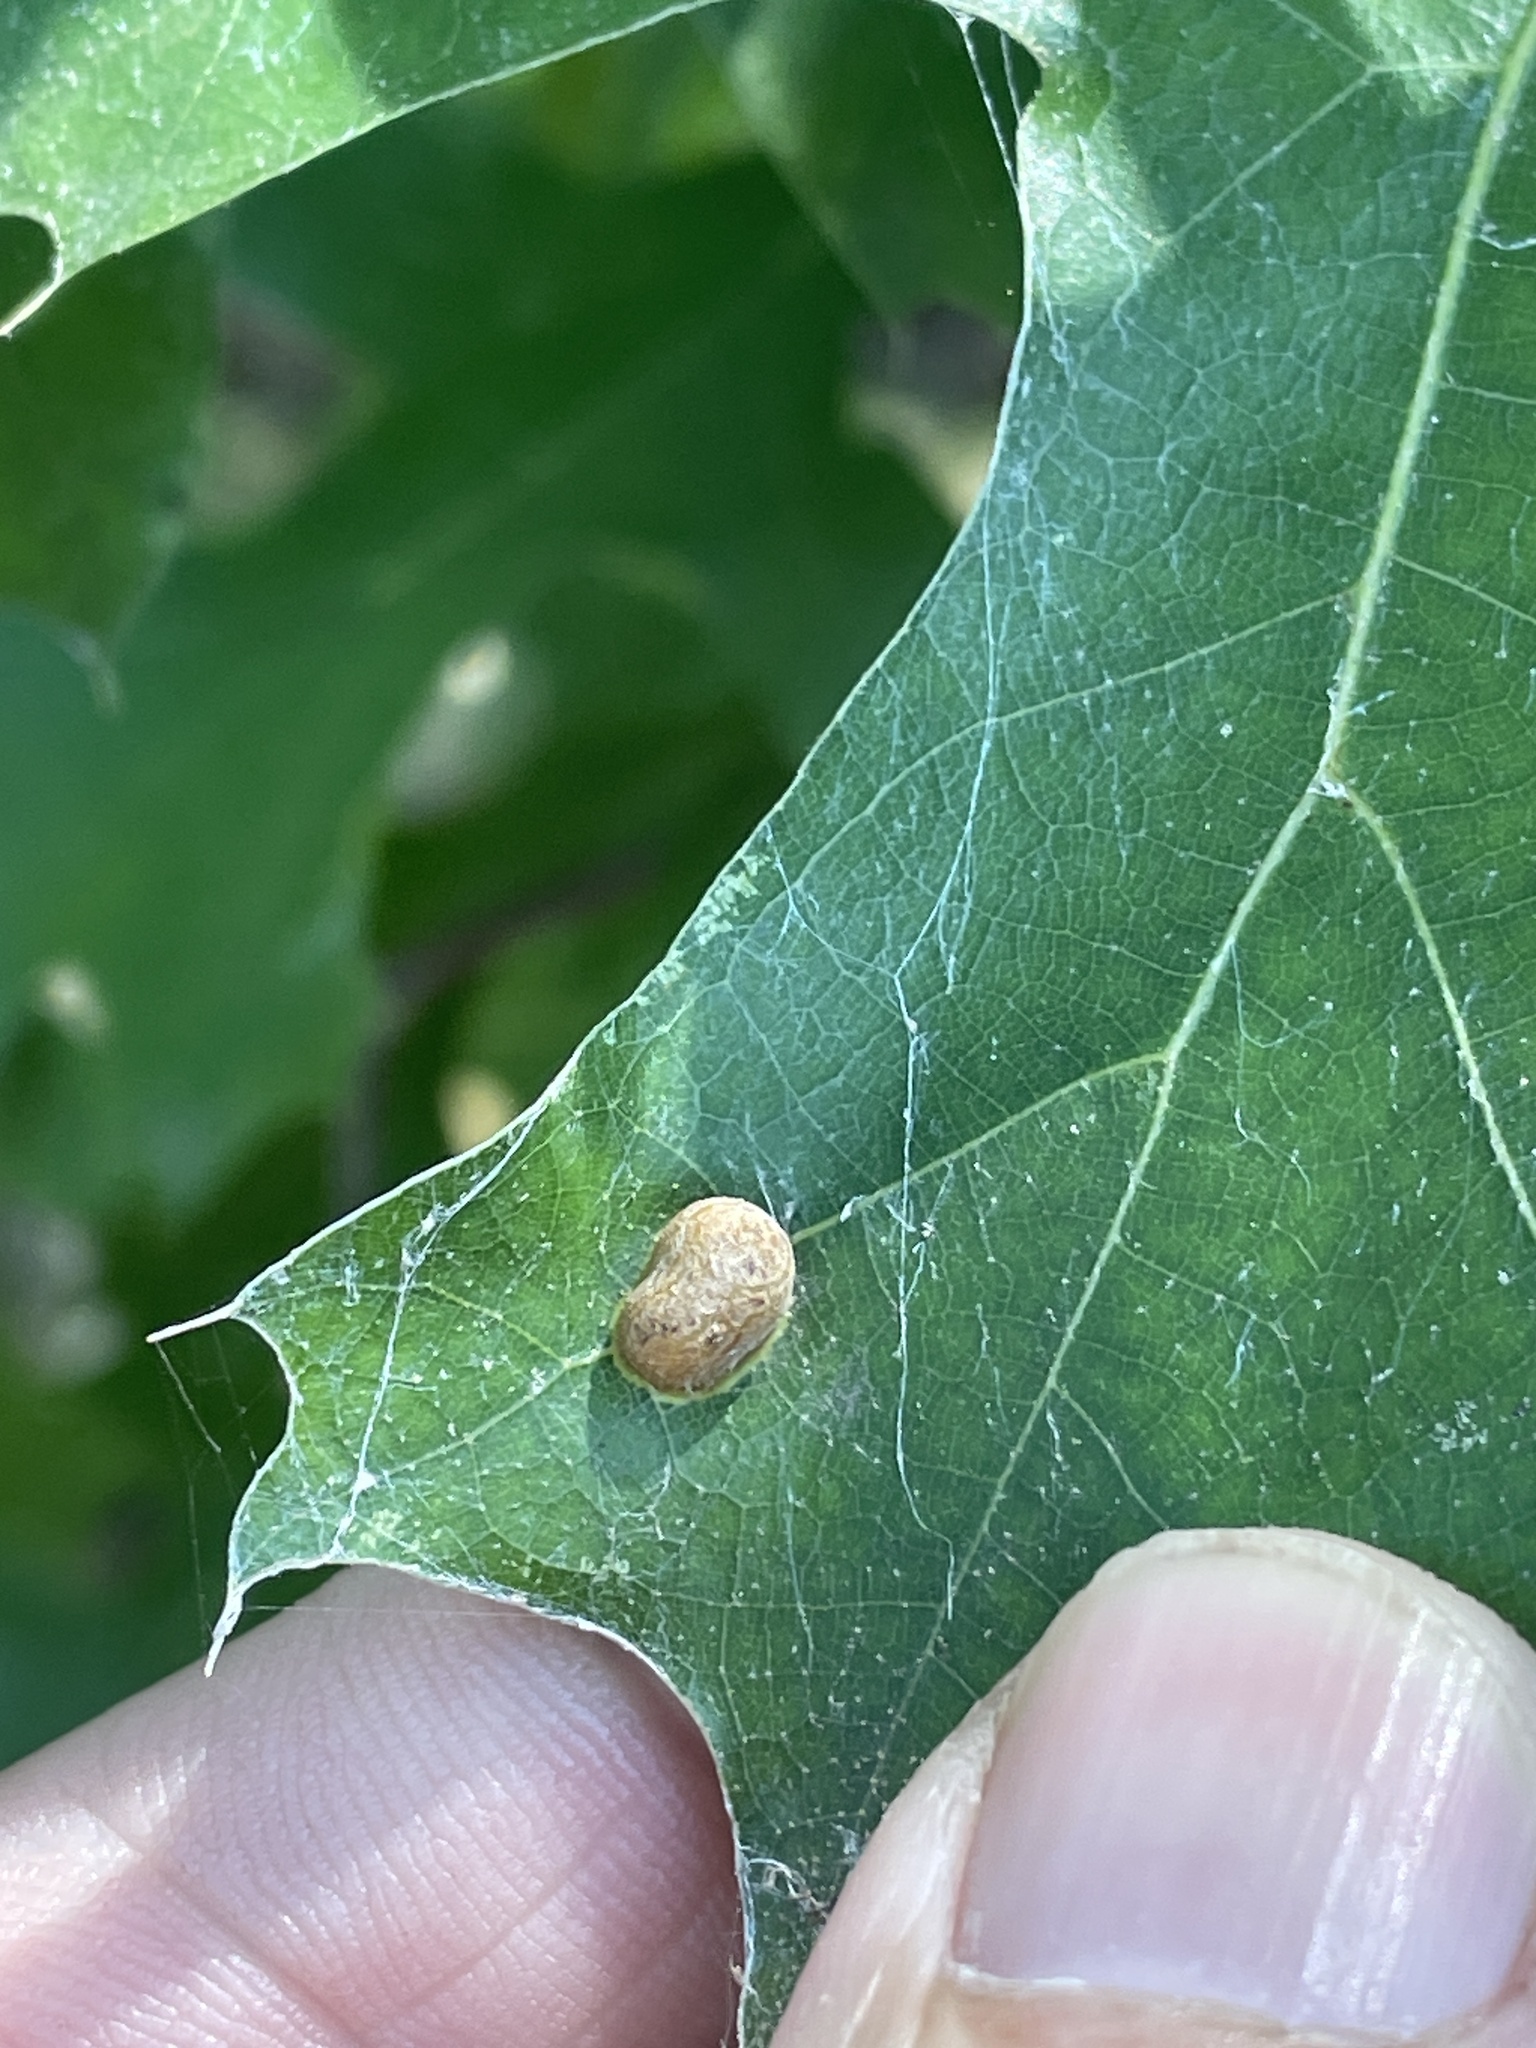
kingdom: Animalia
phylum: Arthropoda
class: Insecta
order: Diptera
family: Cecidomyiidae
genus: Polystepha
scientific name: Polystepha pilulae
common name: Oak leaf gall midge
